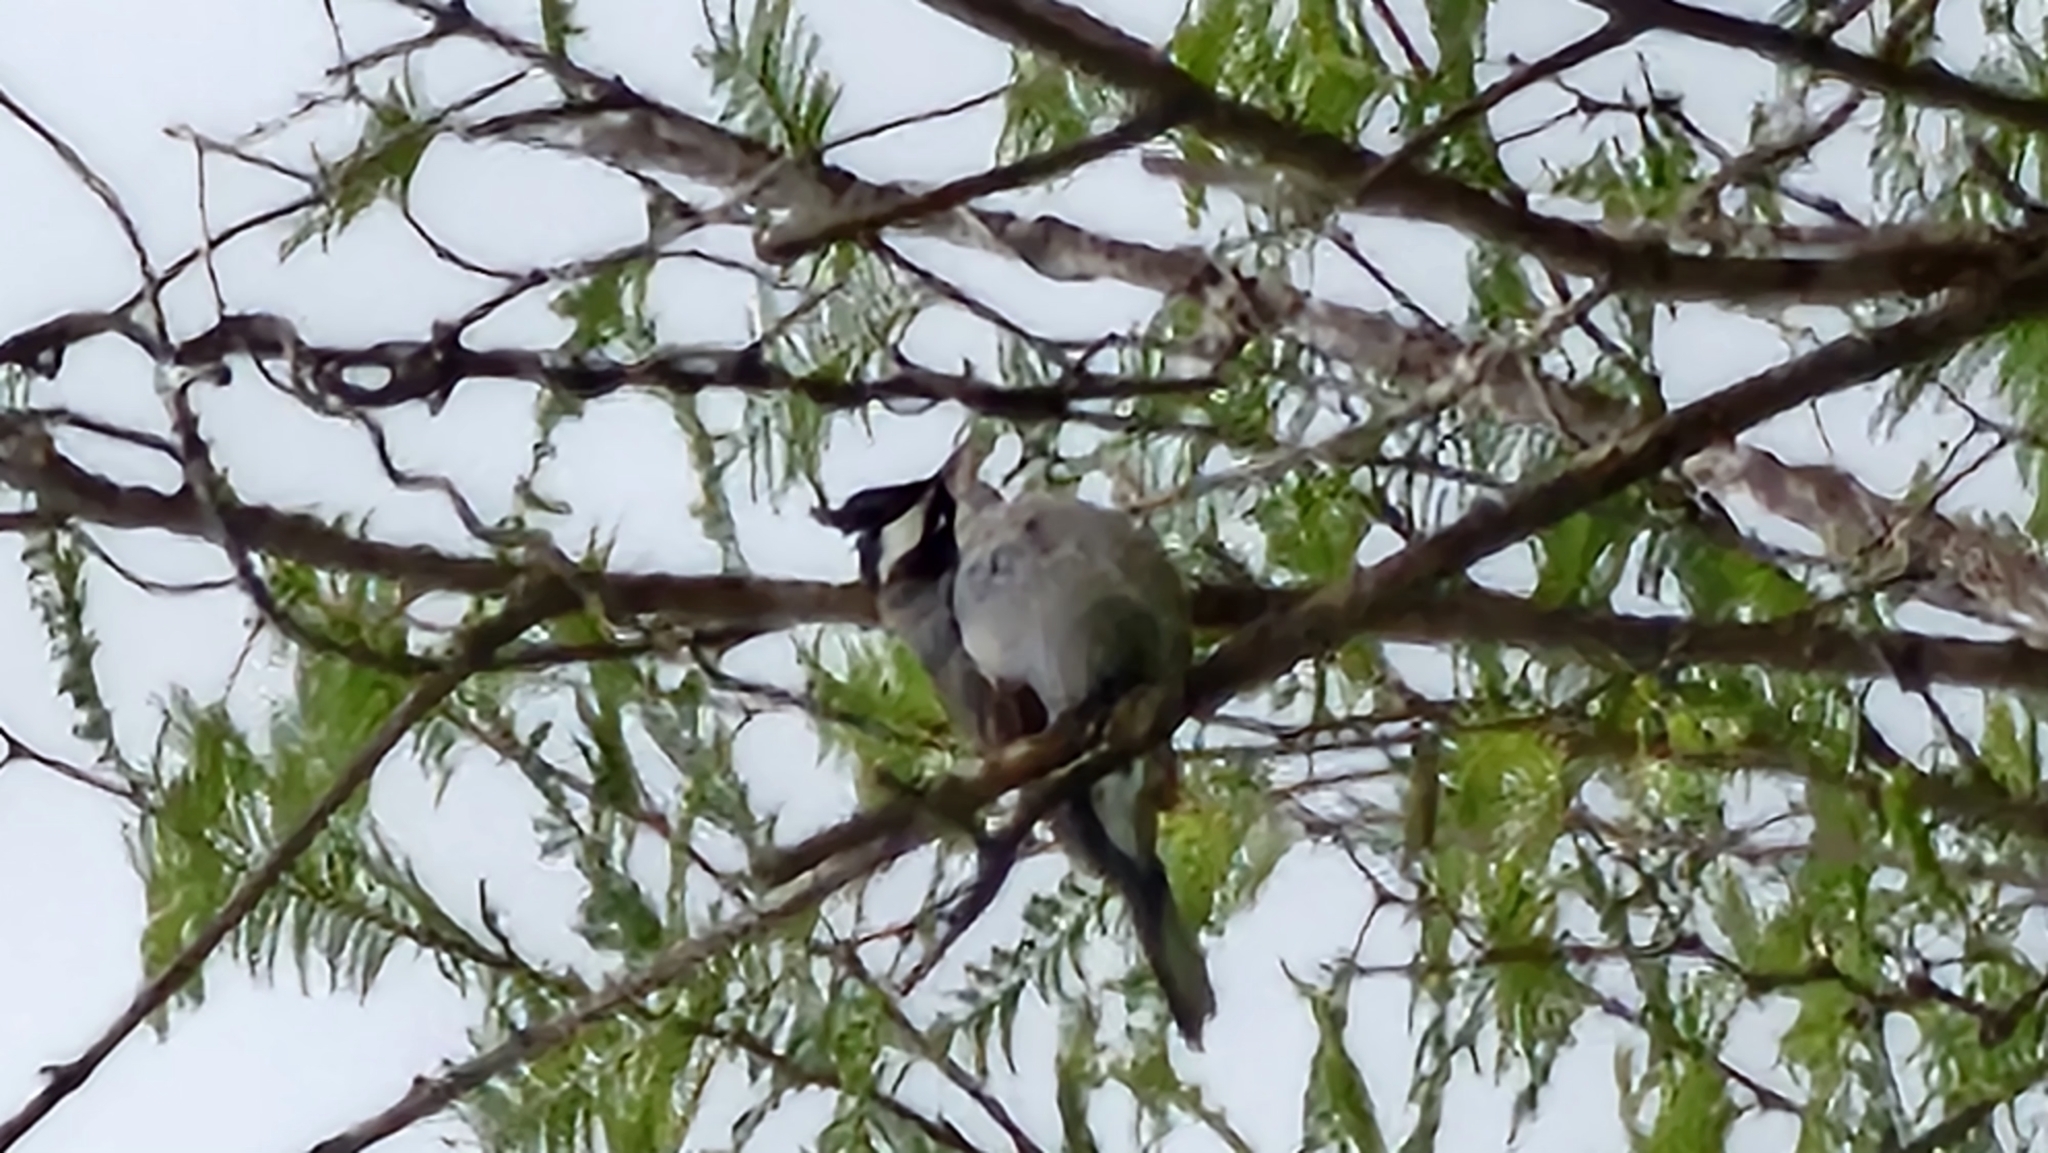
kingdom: Animalia
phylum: Chordata
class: Aves
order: Passeriformes
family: Thraupidae
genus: Lophospingus
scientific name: Lophospingus pusillus
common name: Black-crested finch
